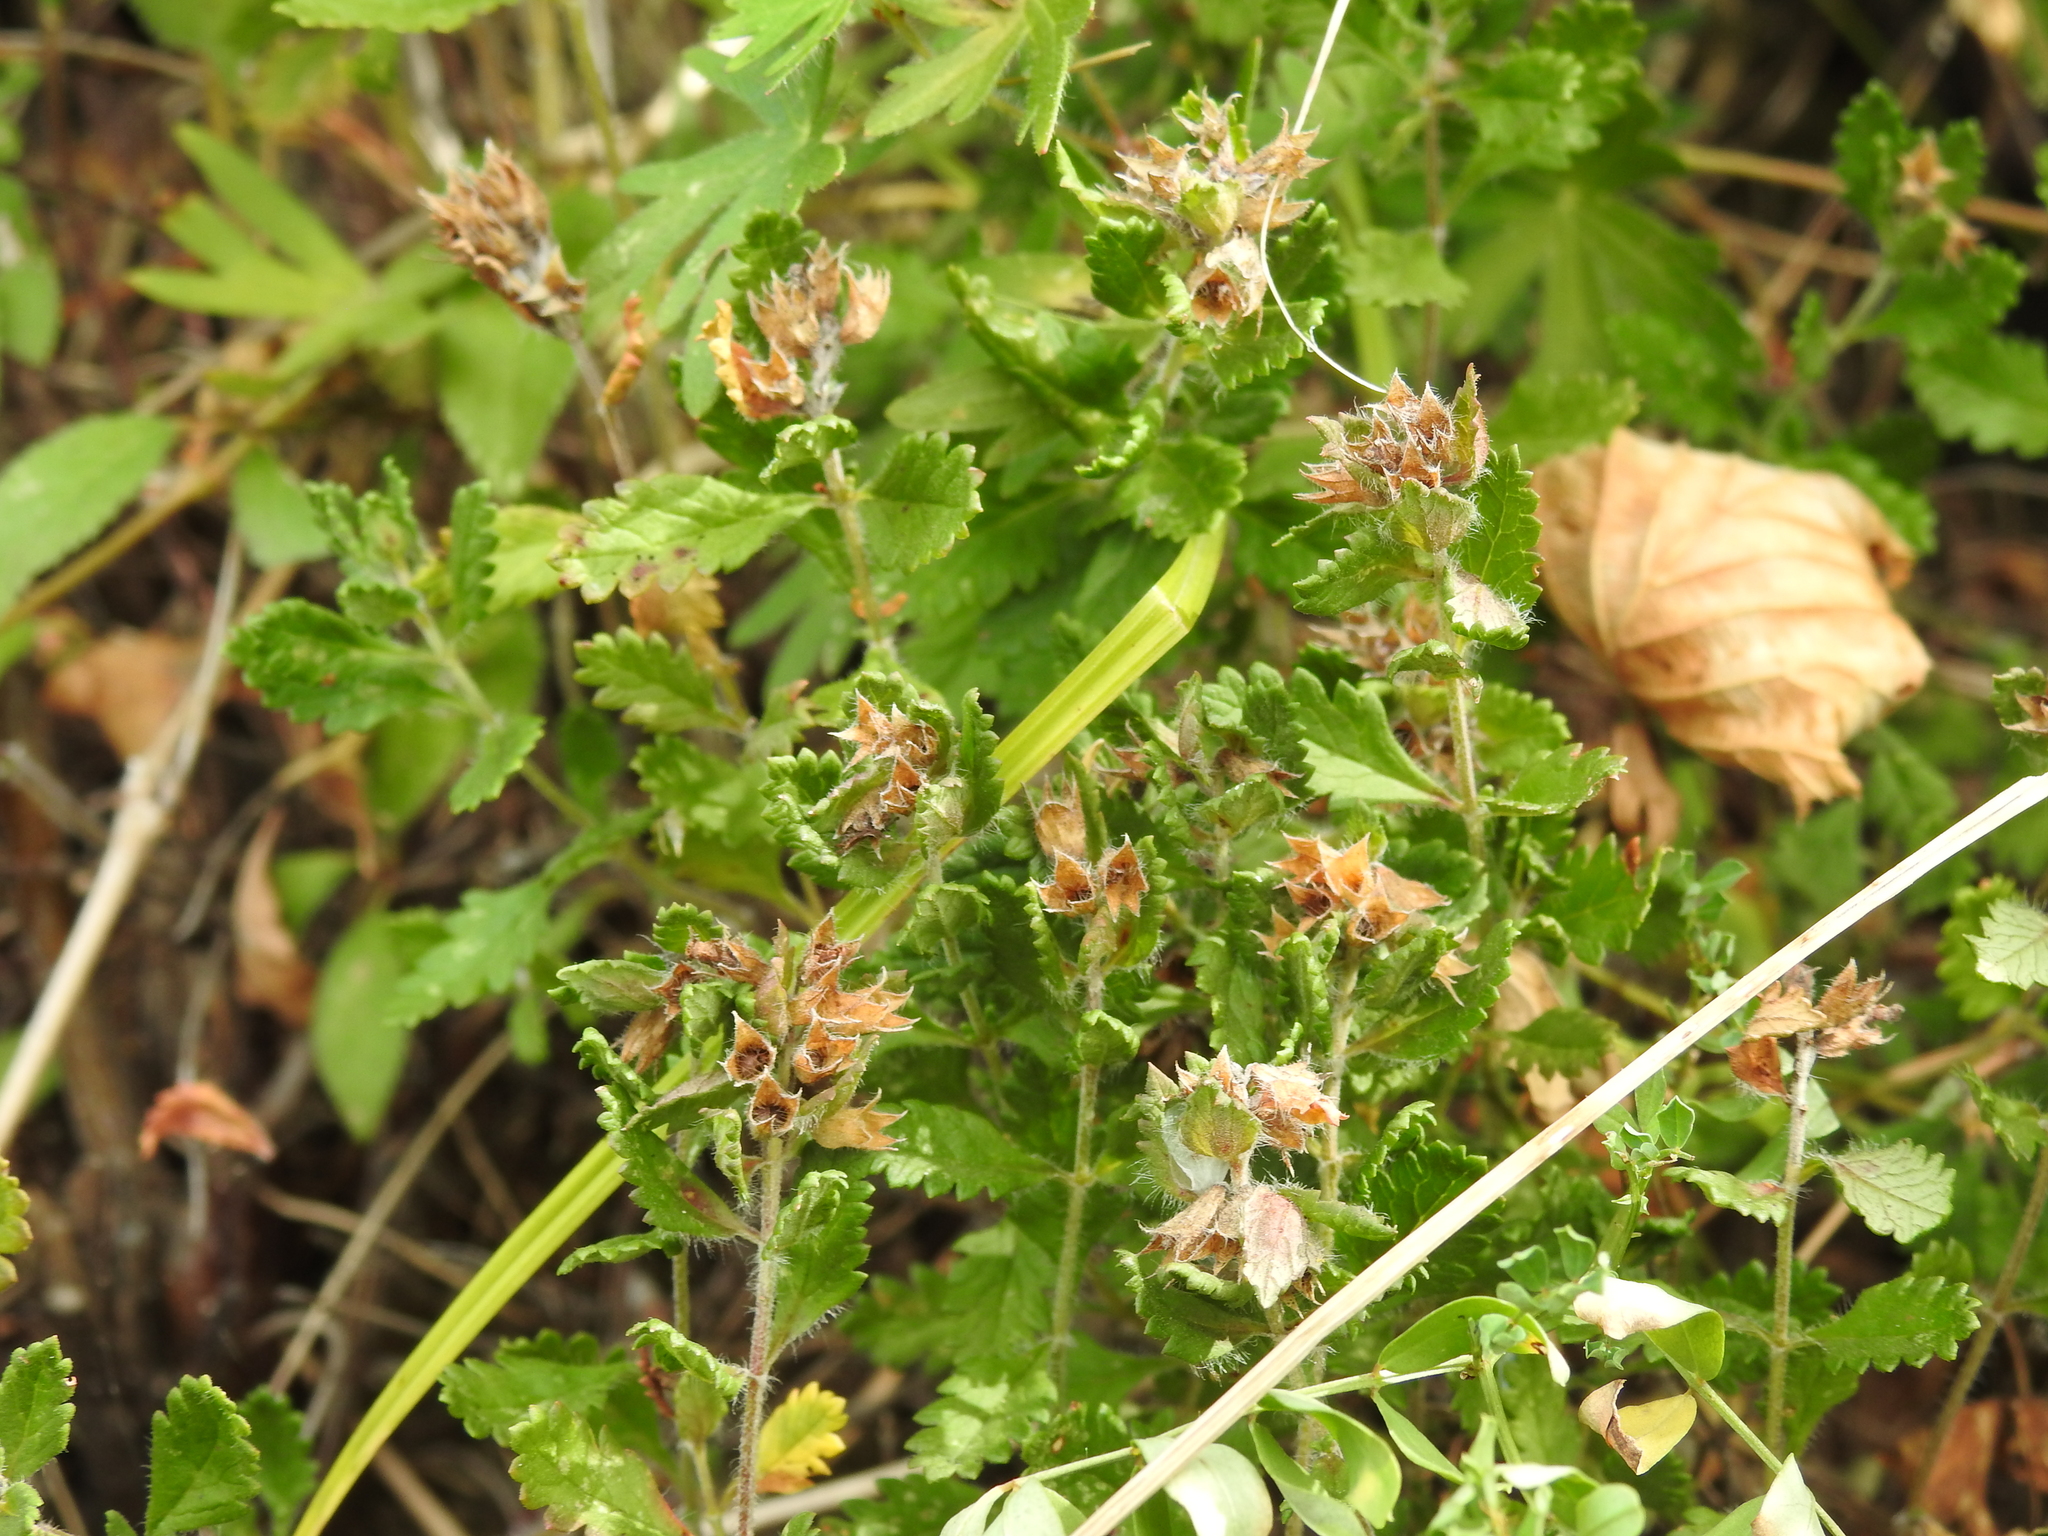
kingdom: Plantae
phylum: Tracheophyta
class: Magnoliopsida
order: Lamiales
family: Lamiaceae
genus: Teucrium
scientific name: Teucrium chamaedrys
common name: Wall germander
